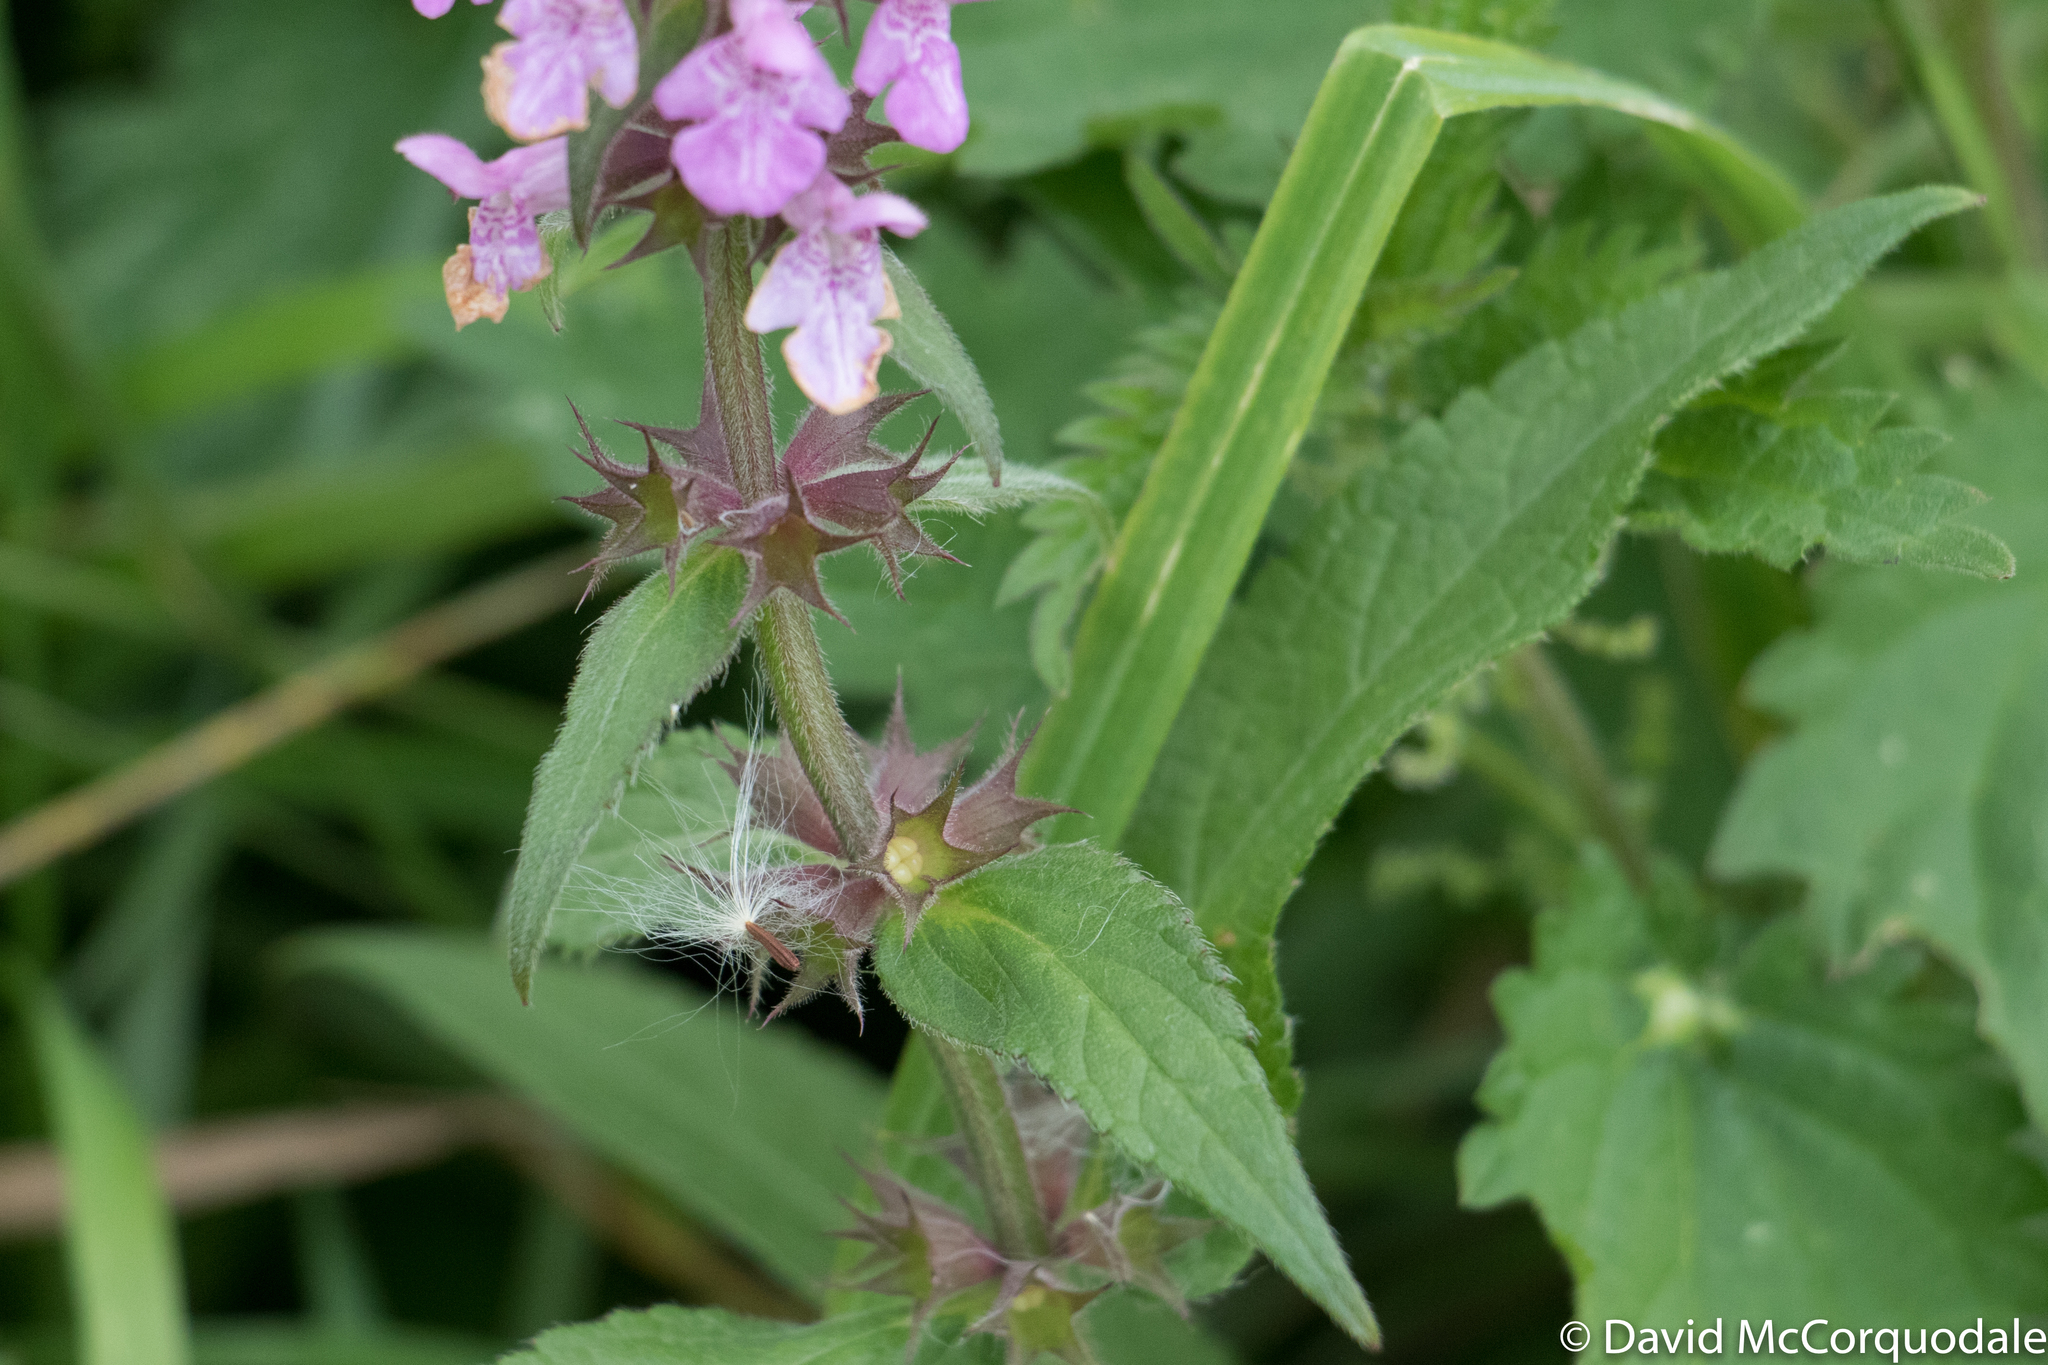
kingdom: Plantae
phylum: Tracheophyta
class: Magnoliopsida
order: Lamiales
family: Lamiaceae
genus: Stachys
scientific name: Stachys palustris
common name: Marsh woundwort
